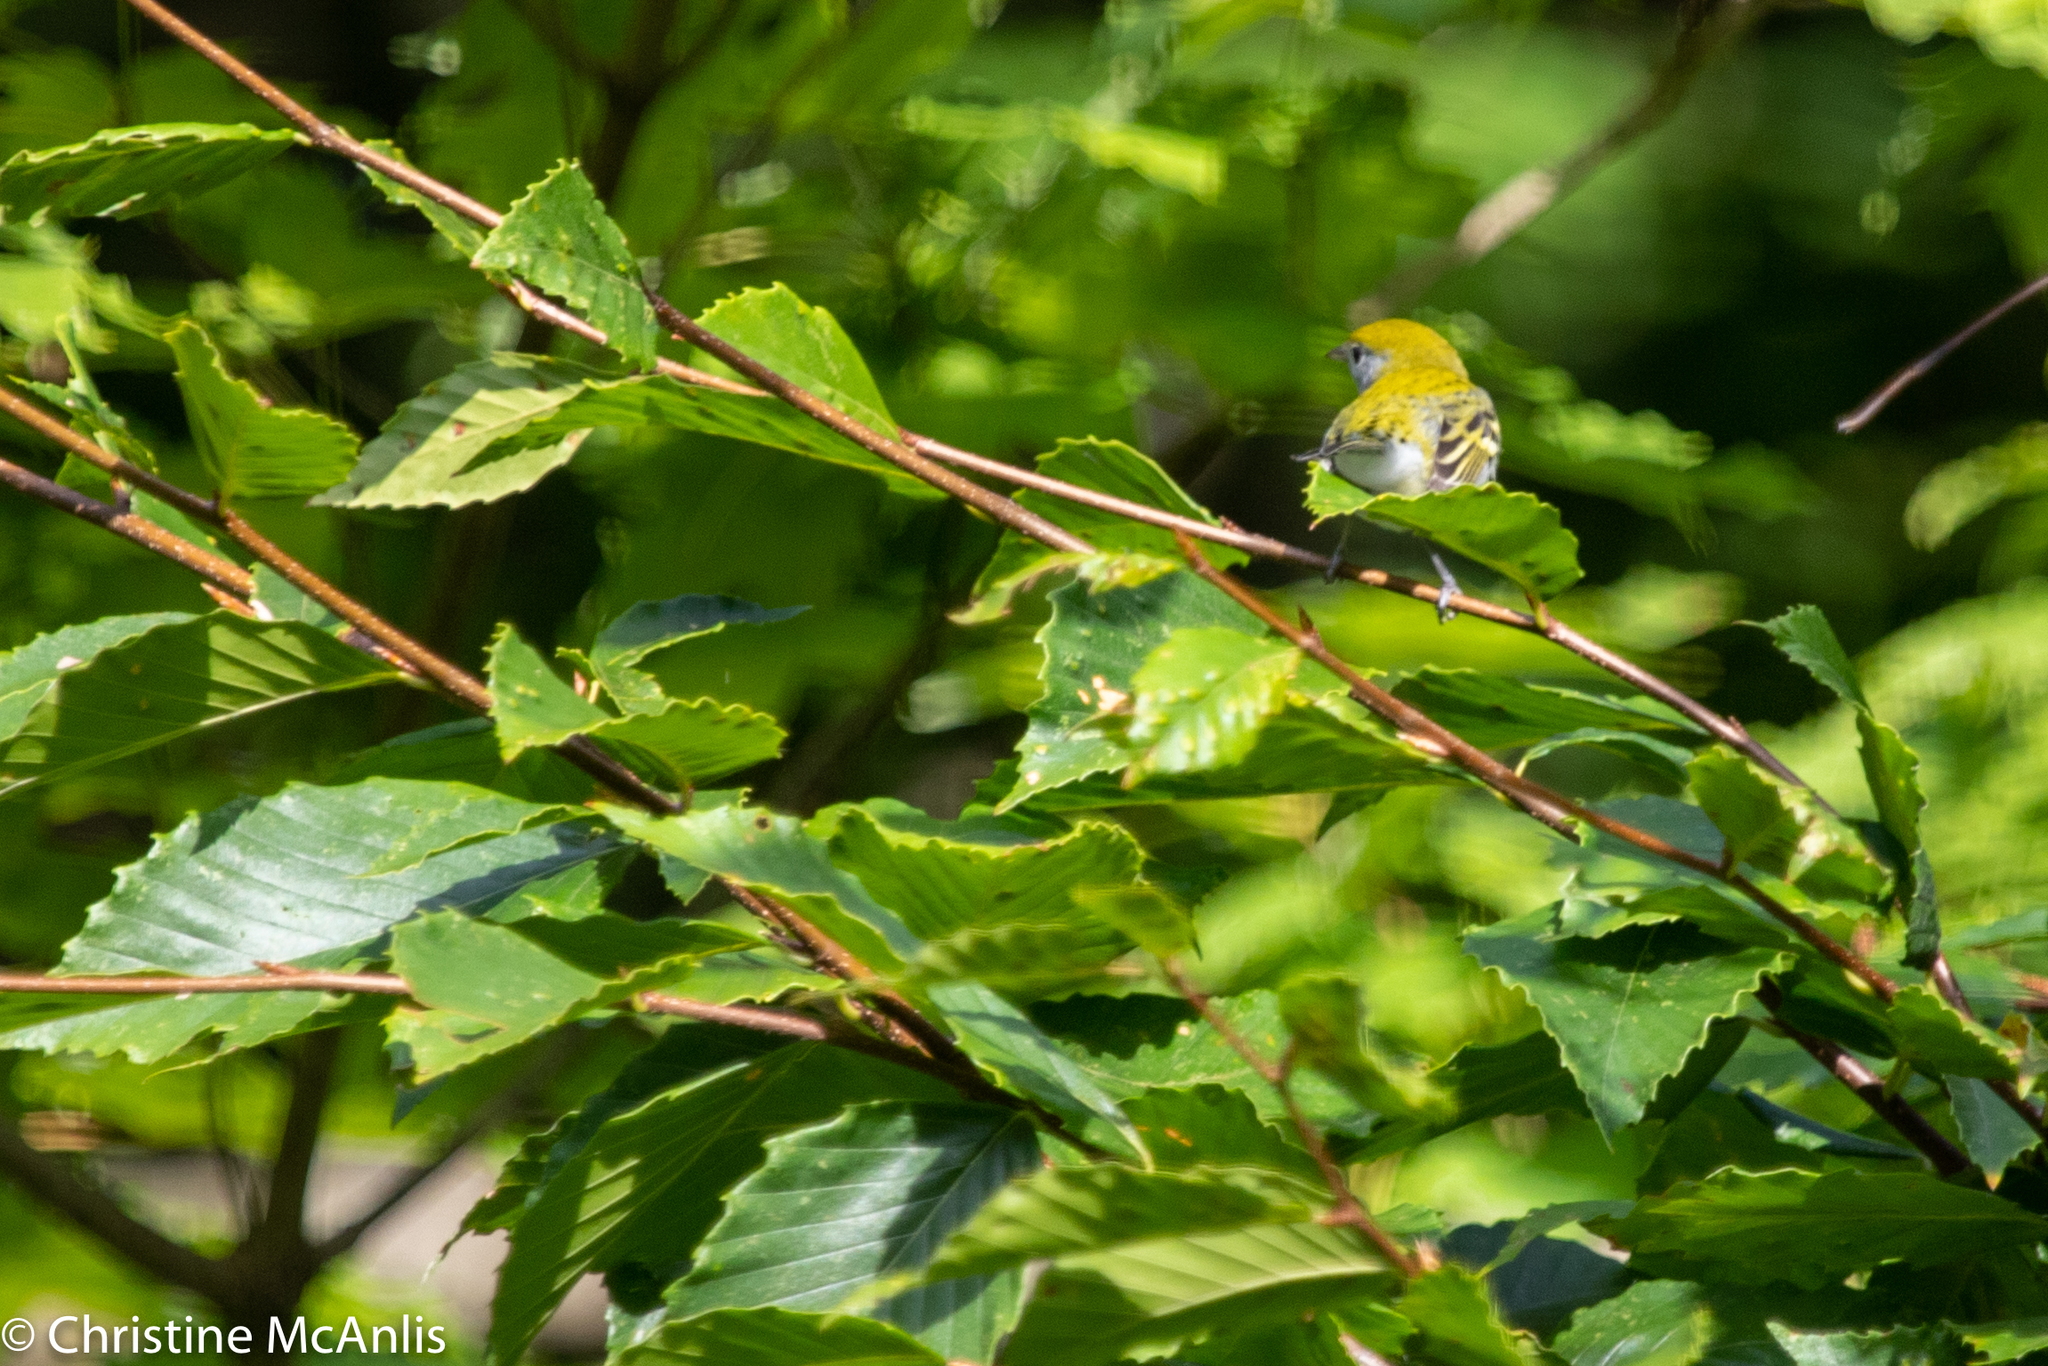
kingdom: Animalia
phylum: Chordata
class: Aves
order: Passeriformes
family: Parulidae
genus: Setophaga
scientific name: Setophaga pensylvanica
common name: Chestnut-sided warbler
